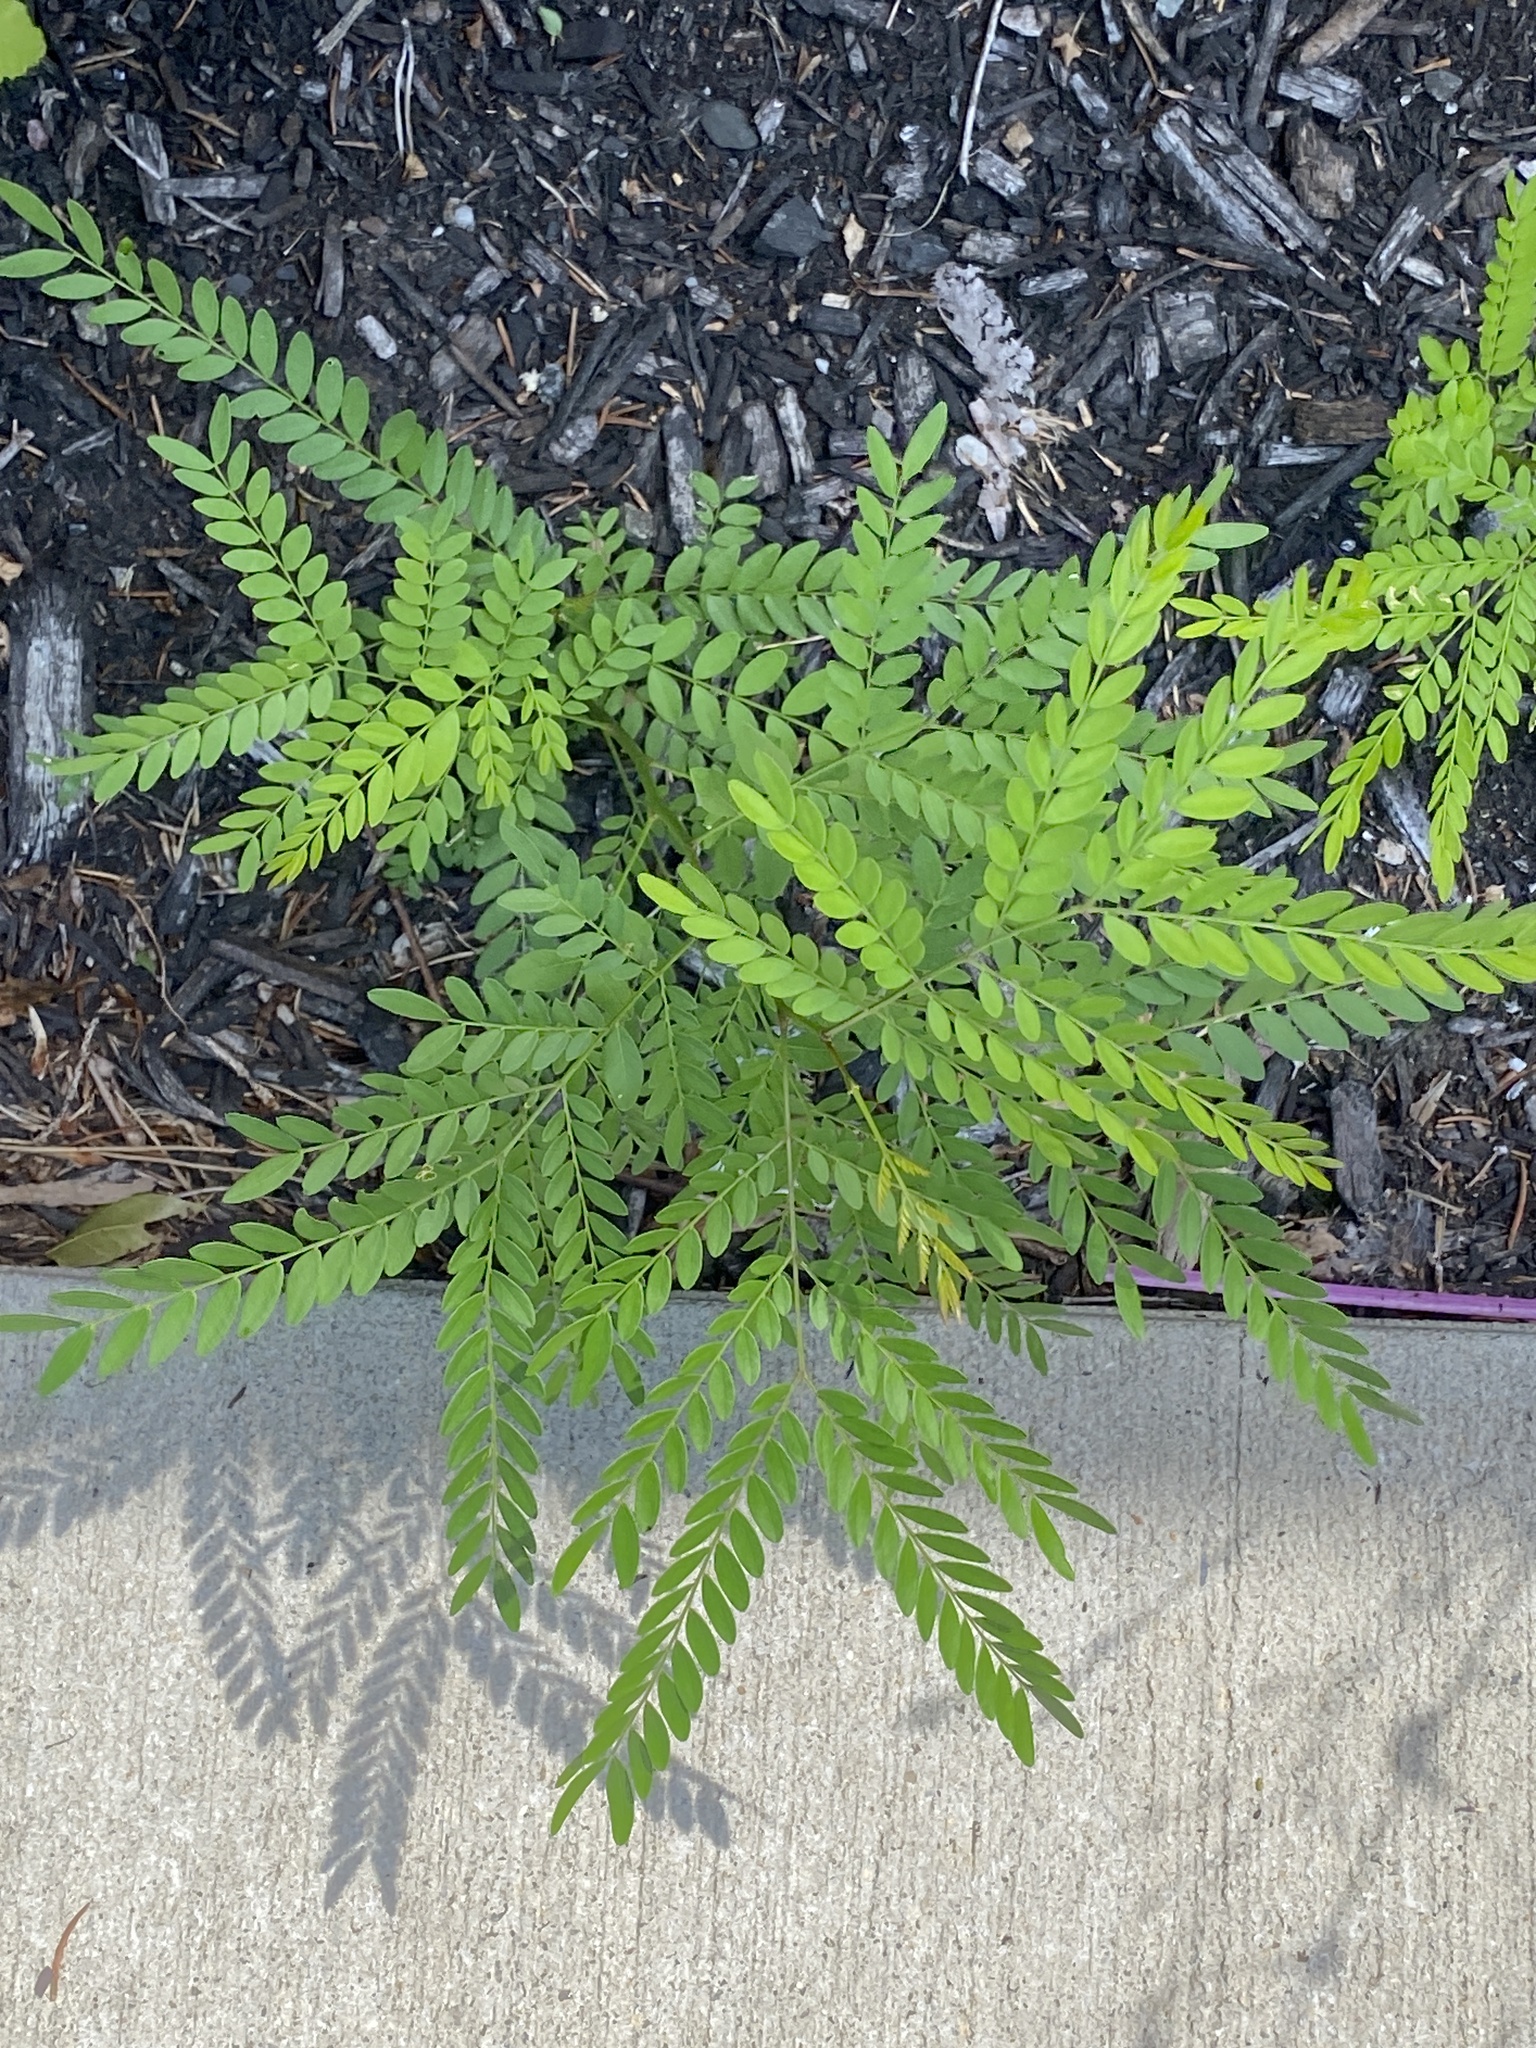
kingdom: Plantae
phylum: Tracheophyta
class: Magnoliopsida
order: Fabales
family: Fabaceae
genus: Gleditsia
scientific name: Gleditsia triacanthos
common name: Common honeylocust
